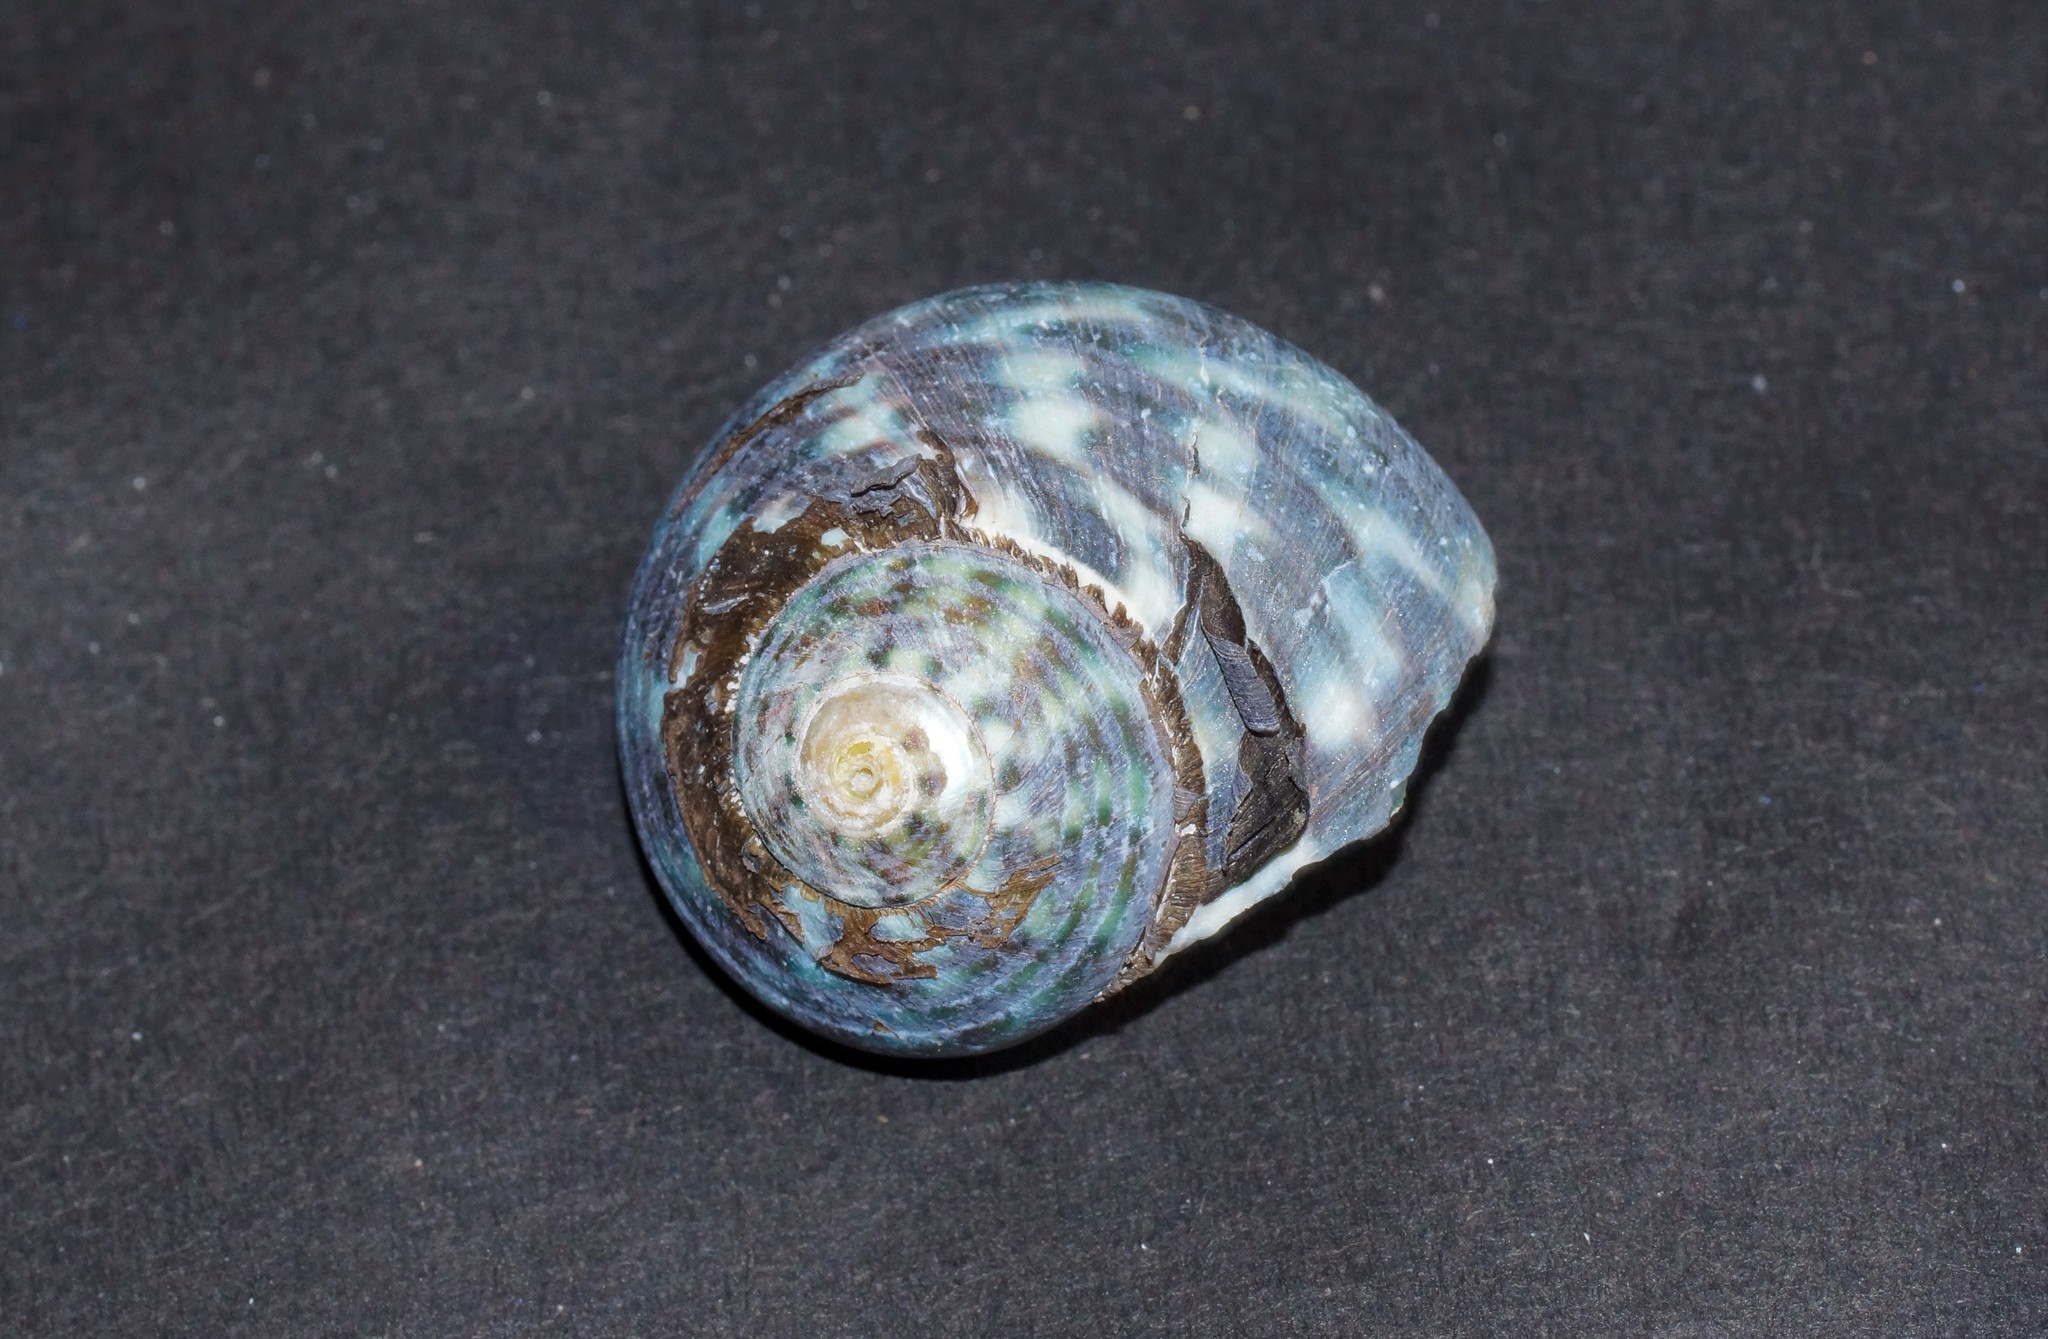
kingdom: Animalia
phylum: Mollusca
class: Gastropoda
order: Trochida
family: Turbinidae
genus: Lunella
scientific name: Lunella undulata
